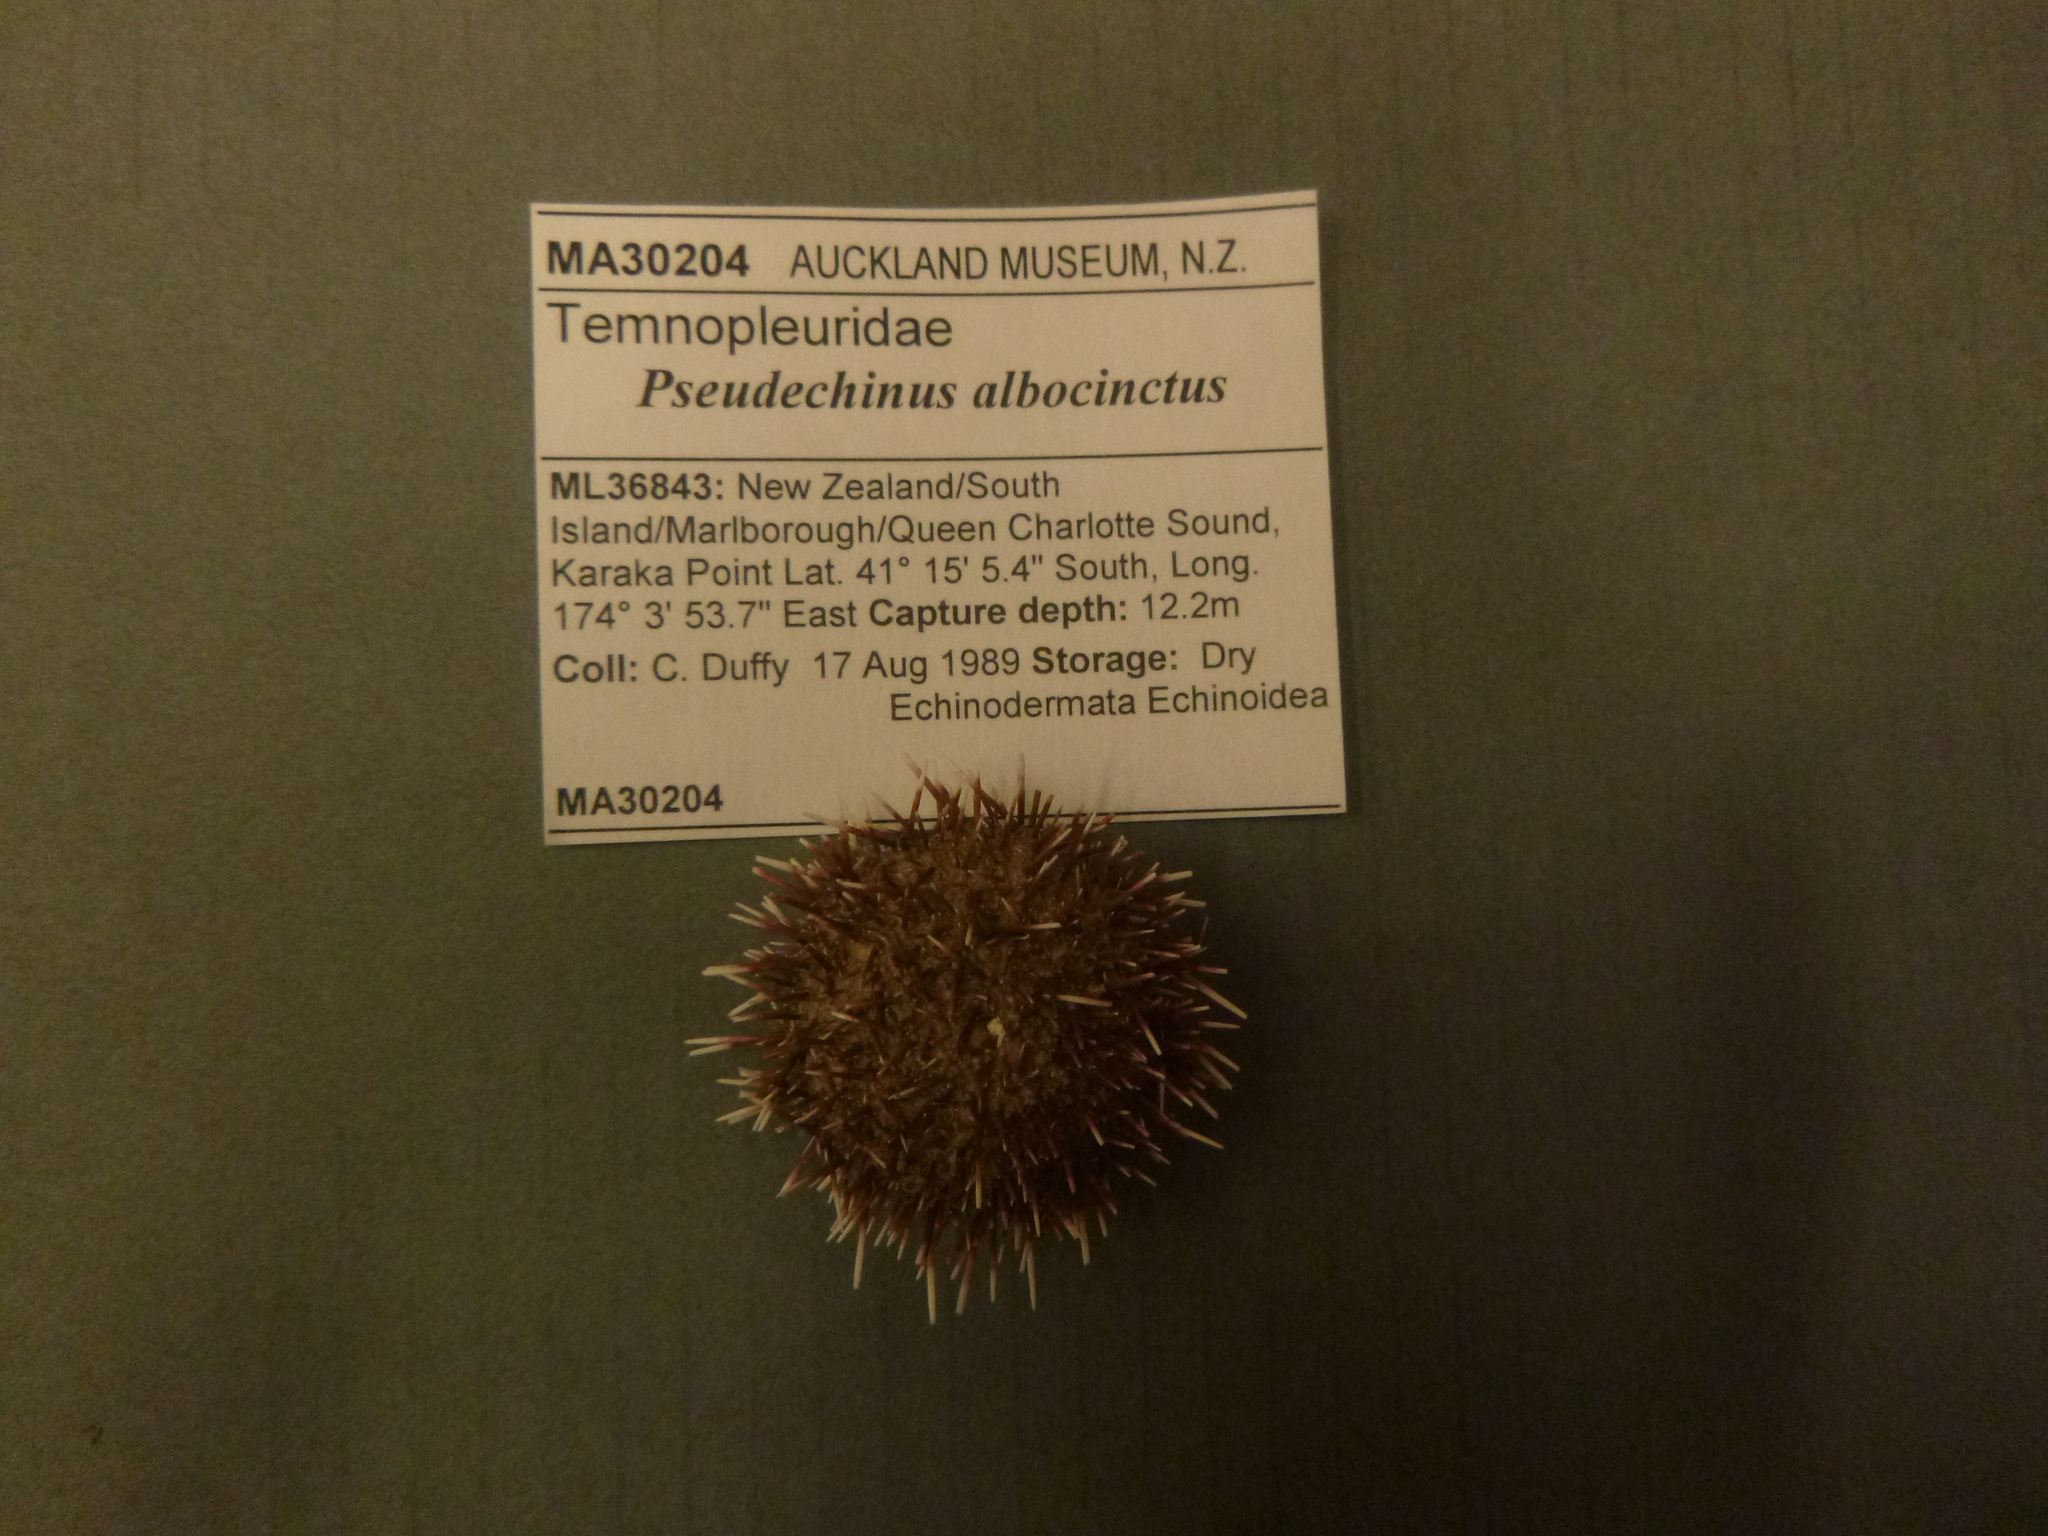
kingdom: Animalia
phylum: Echinodermata
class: Echinoidea
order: Camarodonta
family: Temnopleuridae
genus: Pseudechinus
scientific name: Pseudechinus albocinctus
